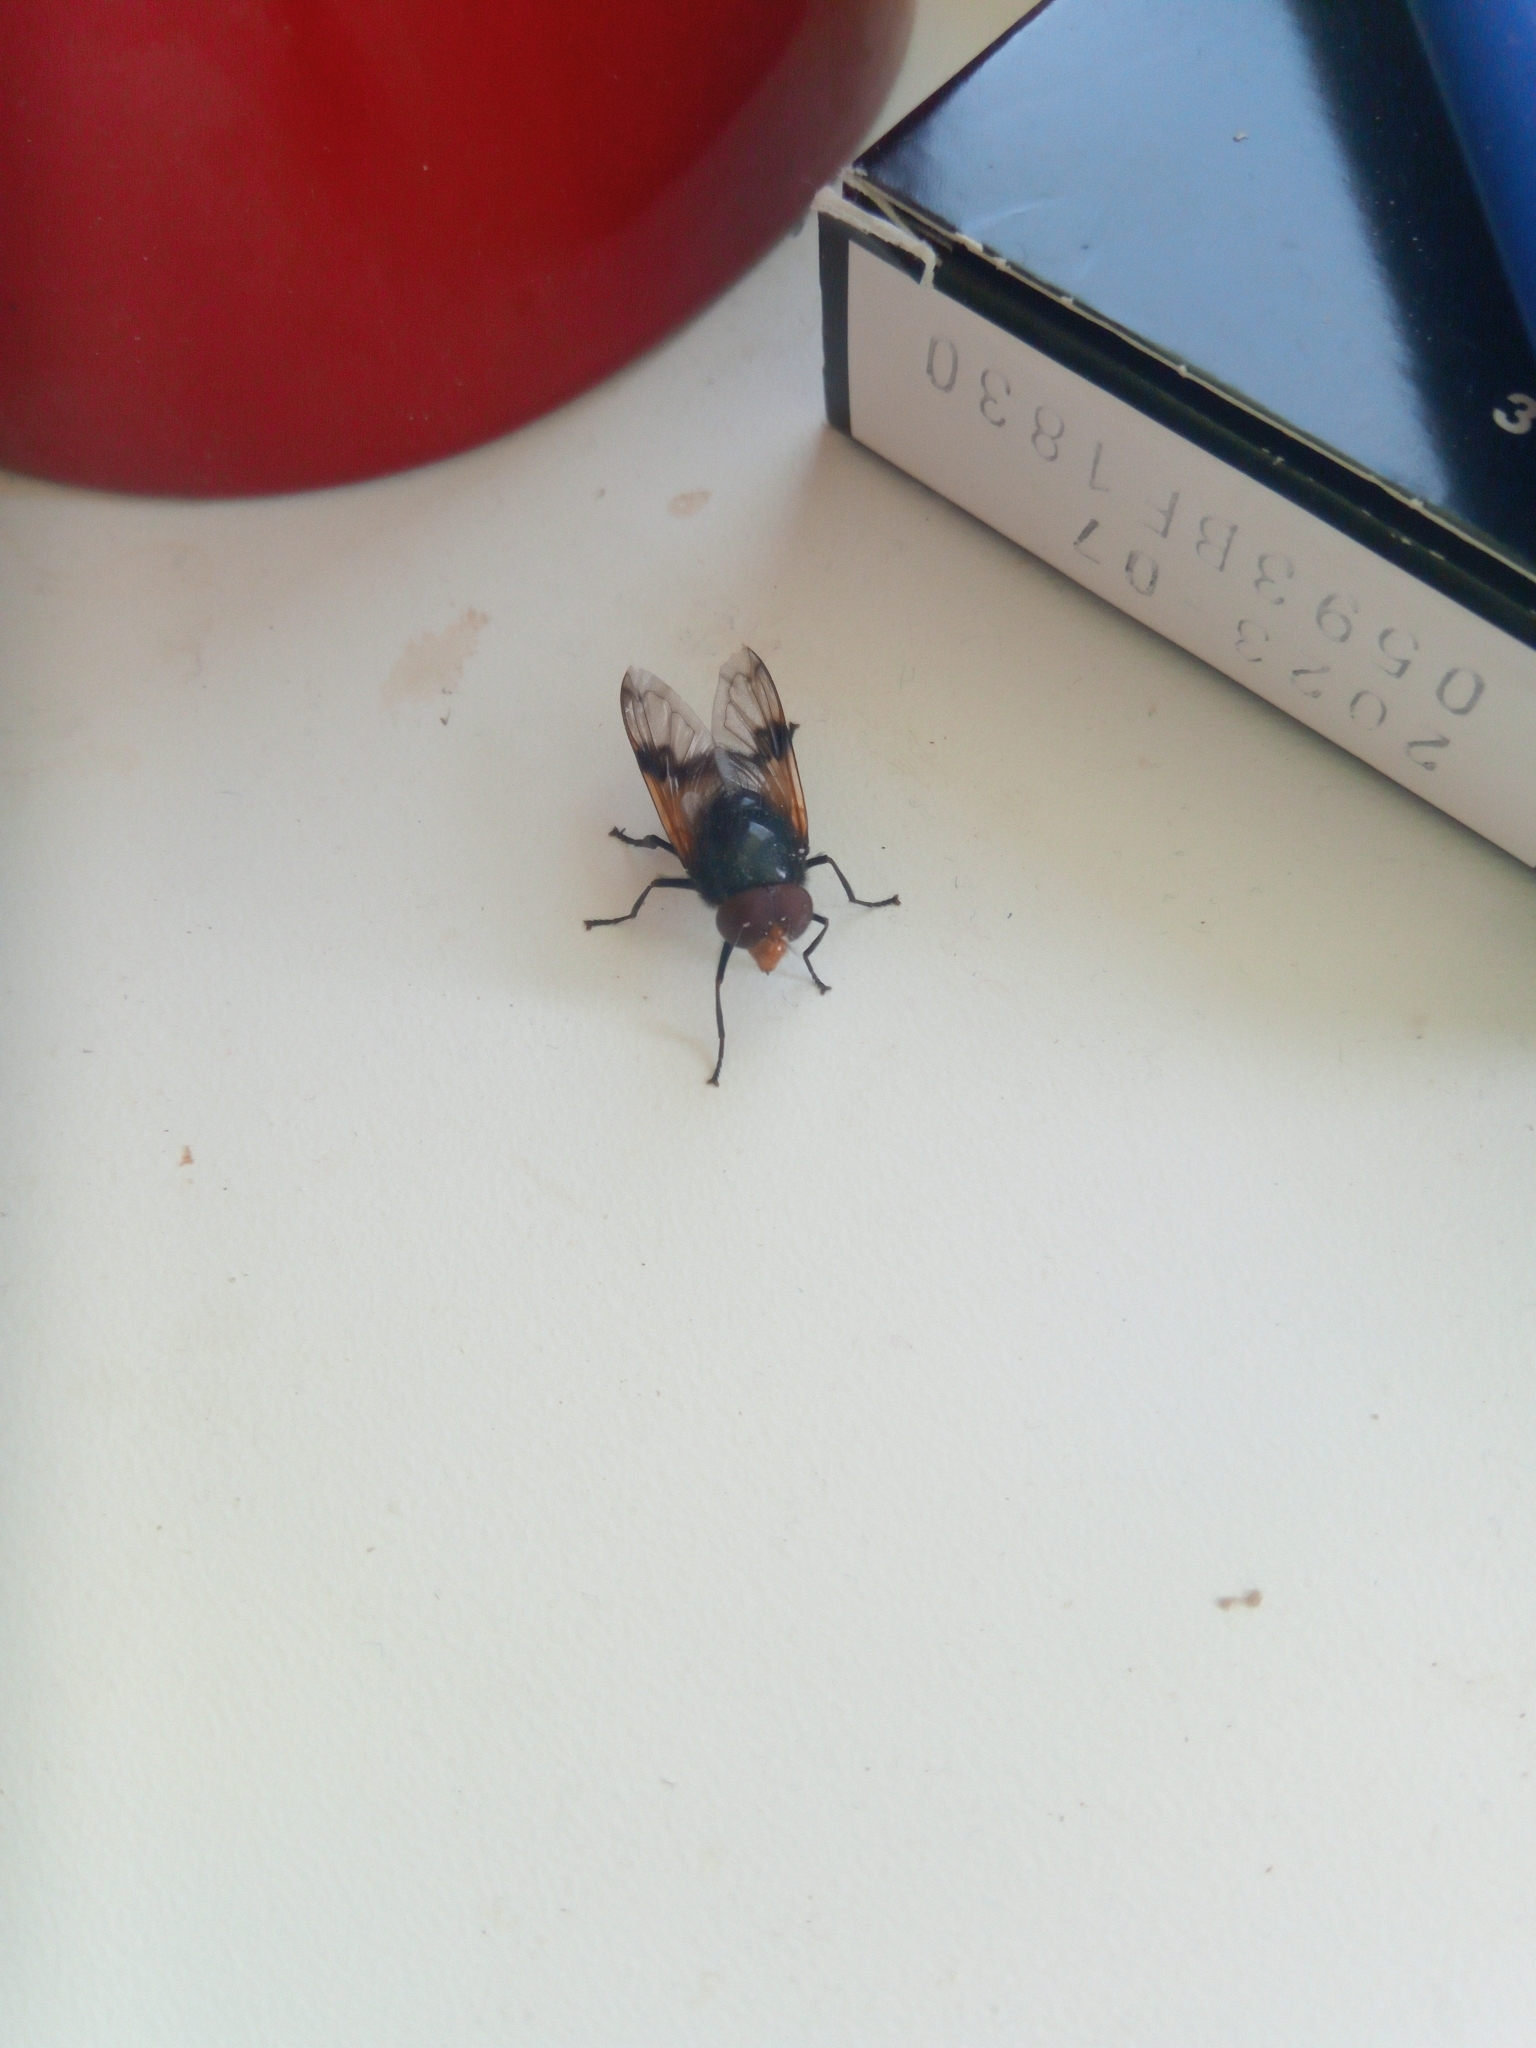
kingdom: Animalia
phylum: Arthropoda
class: Insecta
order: Diptera
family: Syrphidae
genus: Volucella
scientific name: Volucella pellucens
